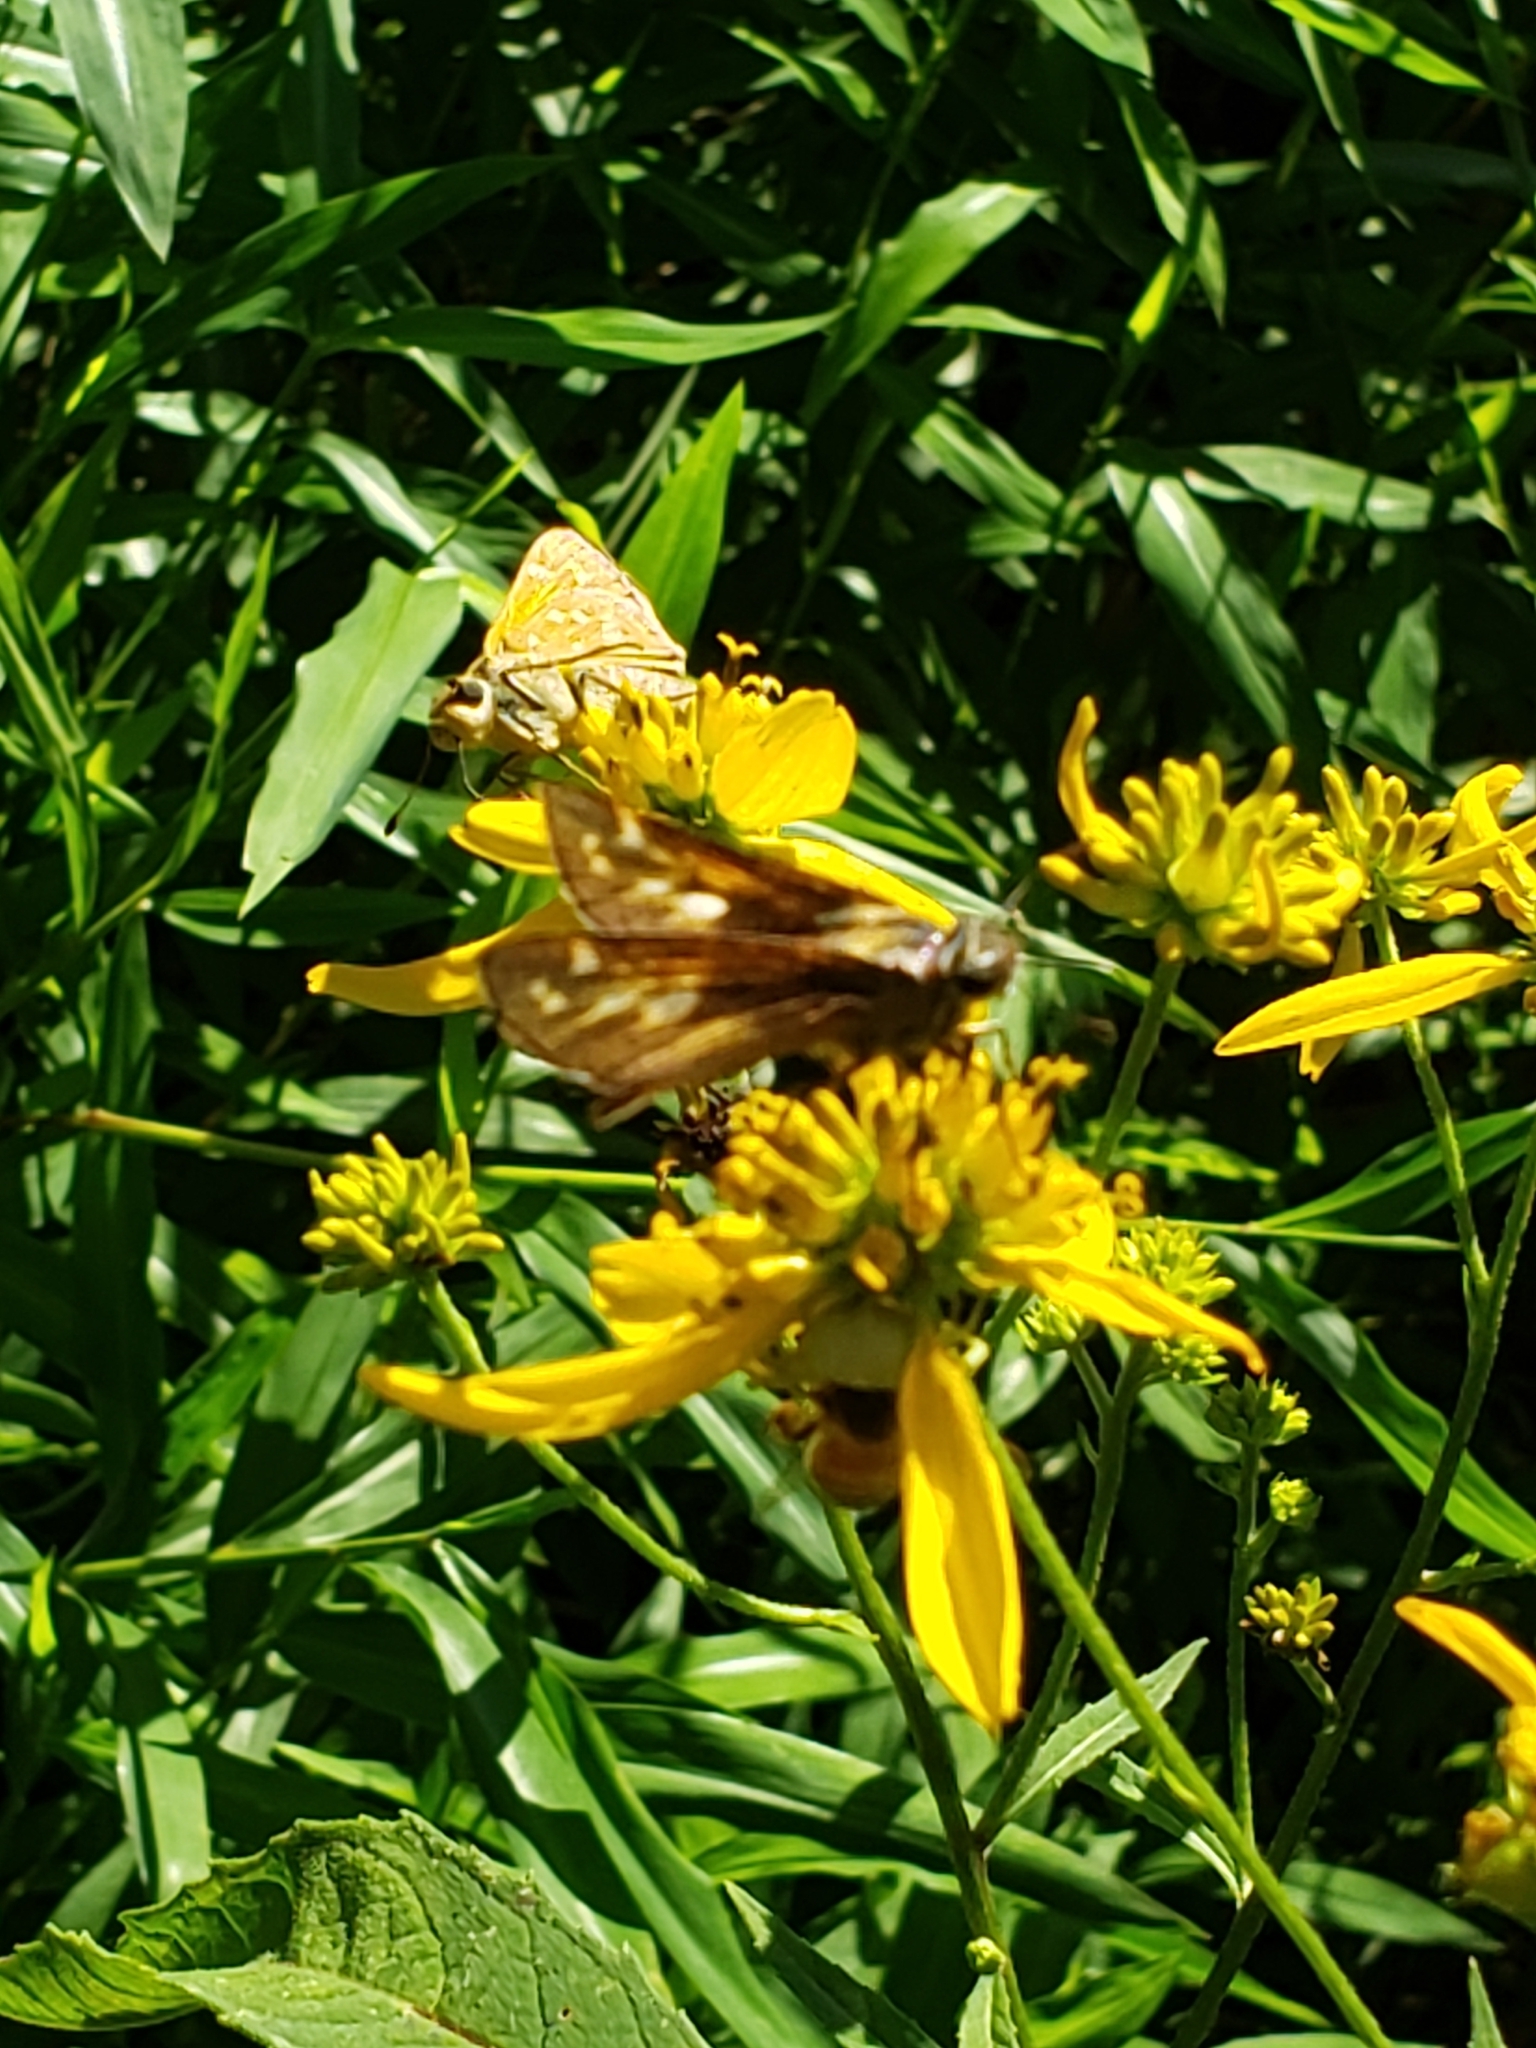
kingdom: Animalia
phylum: Arthropoda
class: Insecta
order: Lepidoptera
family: Hesperiidae
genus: Atalopedes
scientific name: Atalopedes
